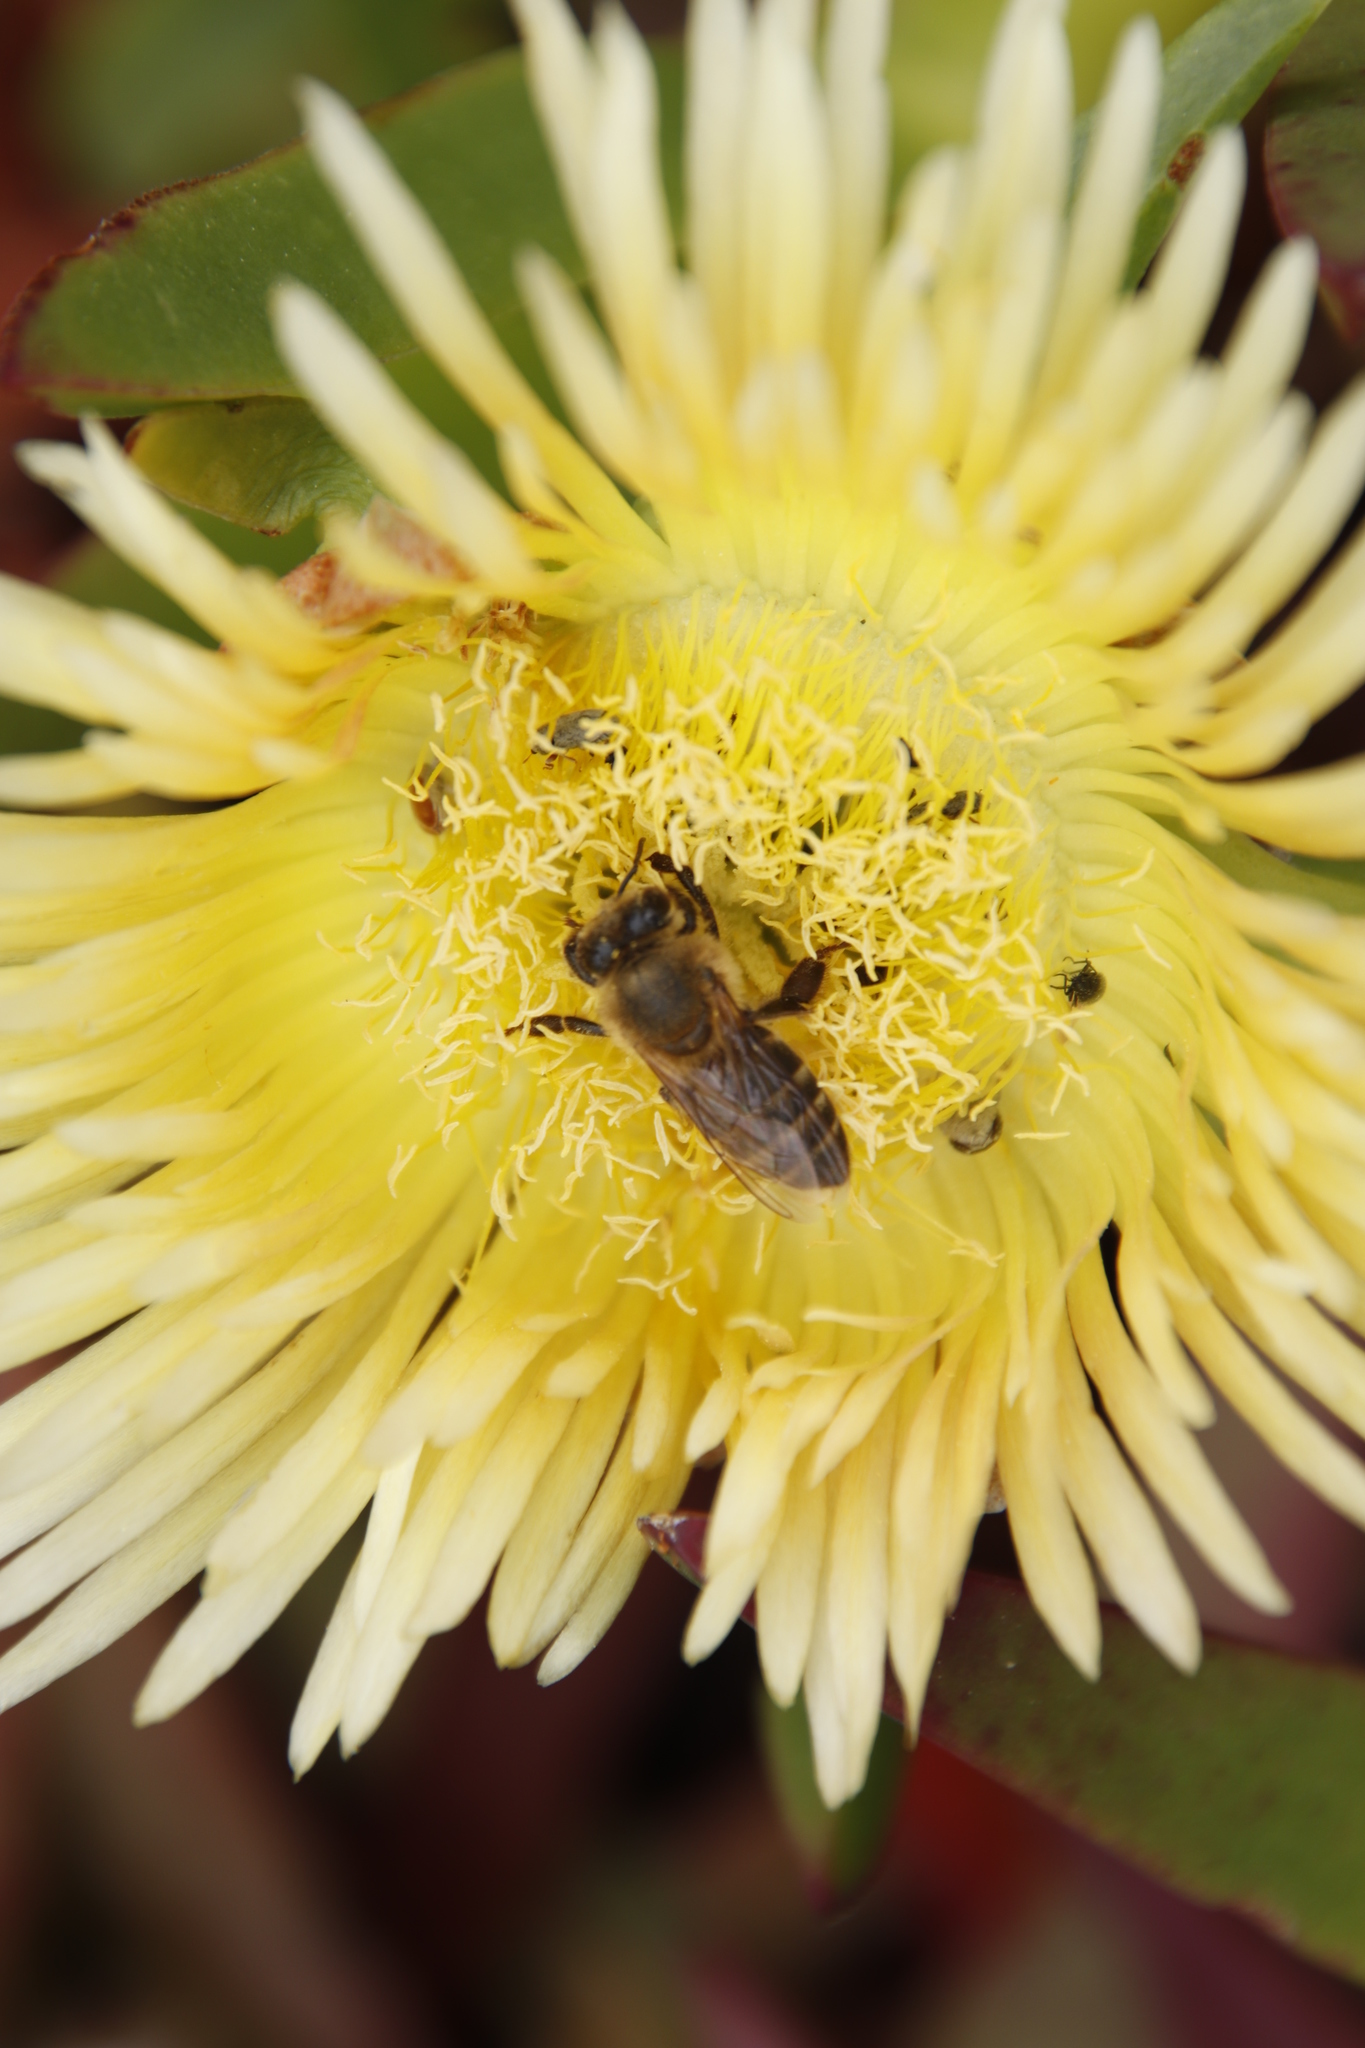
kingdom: Plantae
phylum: Tracheophyta
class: Magnoliopsida
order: Caryophyllales
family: Aizoaceae
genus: Carpobrotus
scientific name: Carpobrotus edulis
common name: Hottentot-fig
